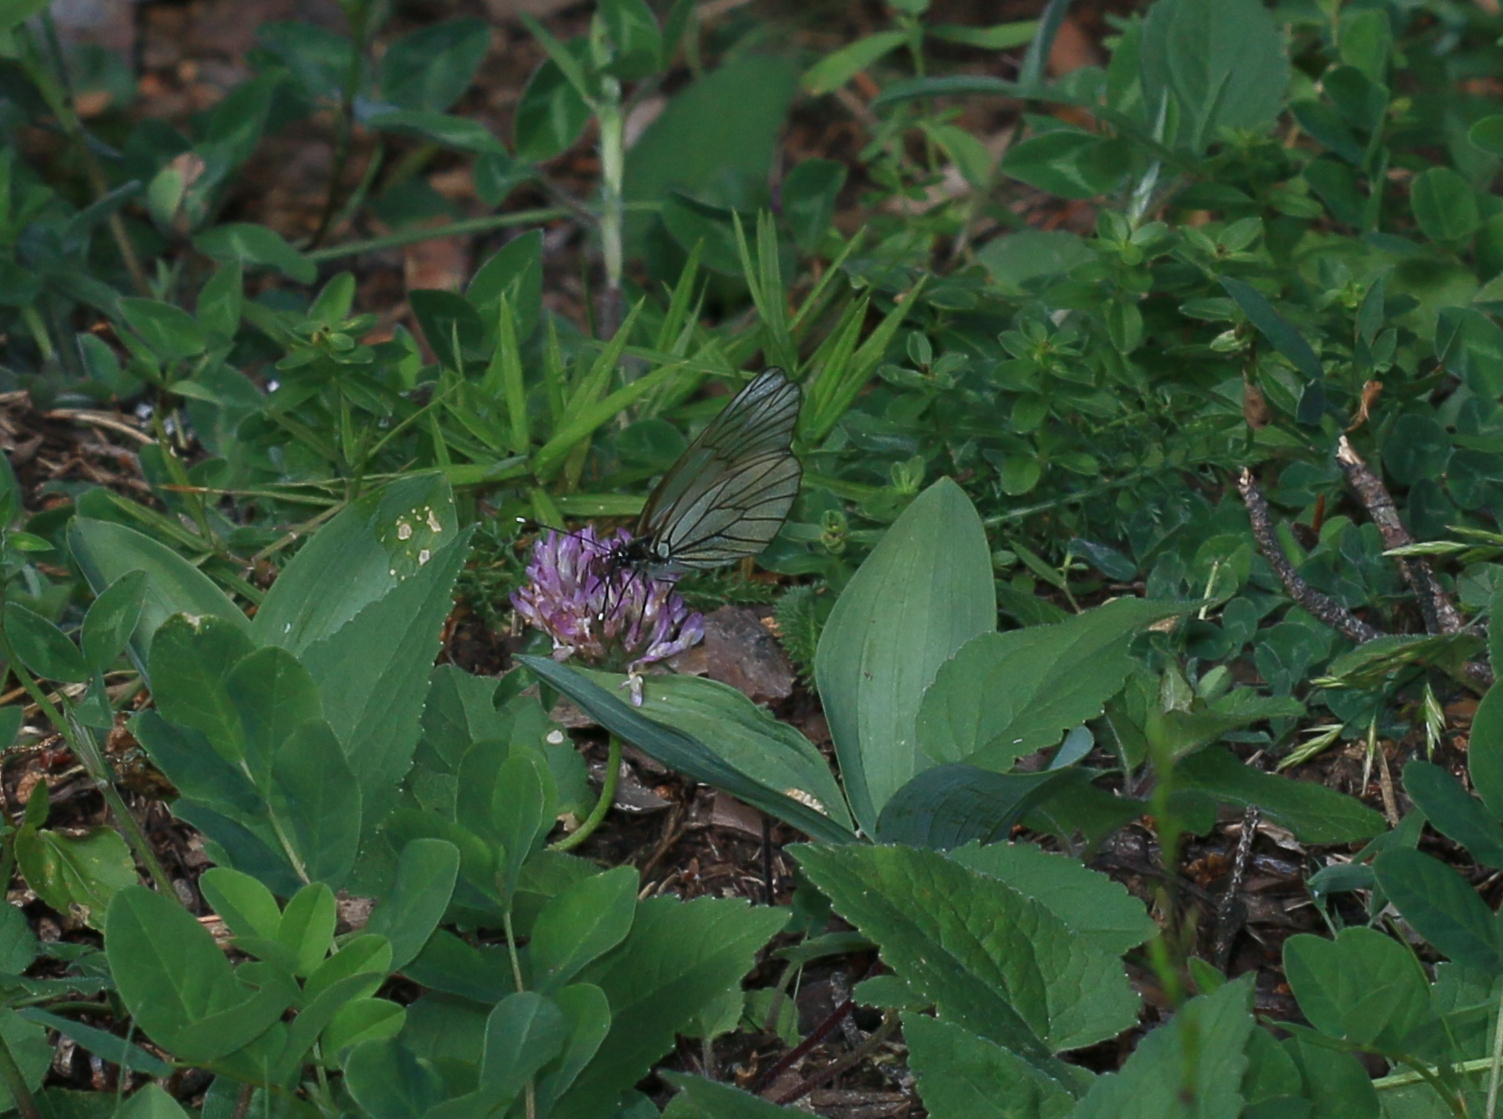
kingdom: Animalia
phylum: Arthropoda
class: Insecta
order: Lepidoptera
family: Pieridae
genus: Aporia
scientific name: Aporia crataegi
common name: Black-veined white
